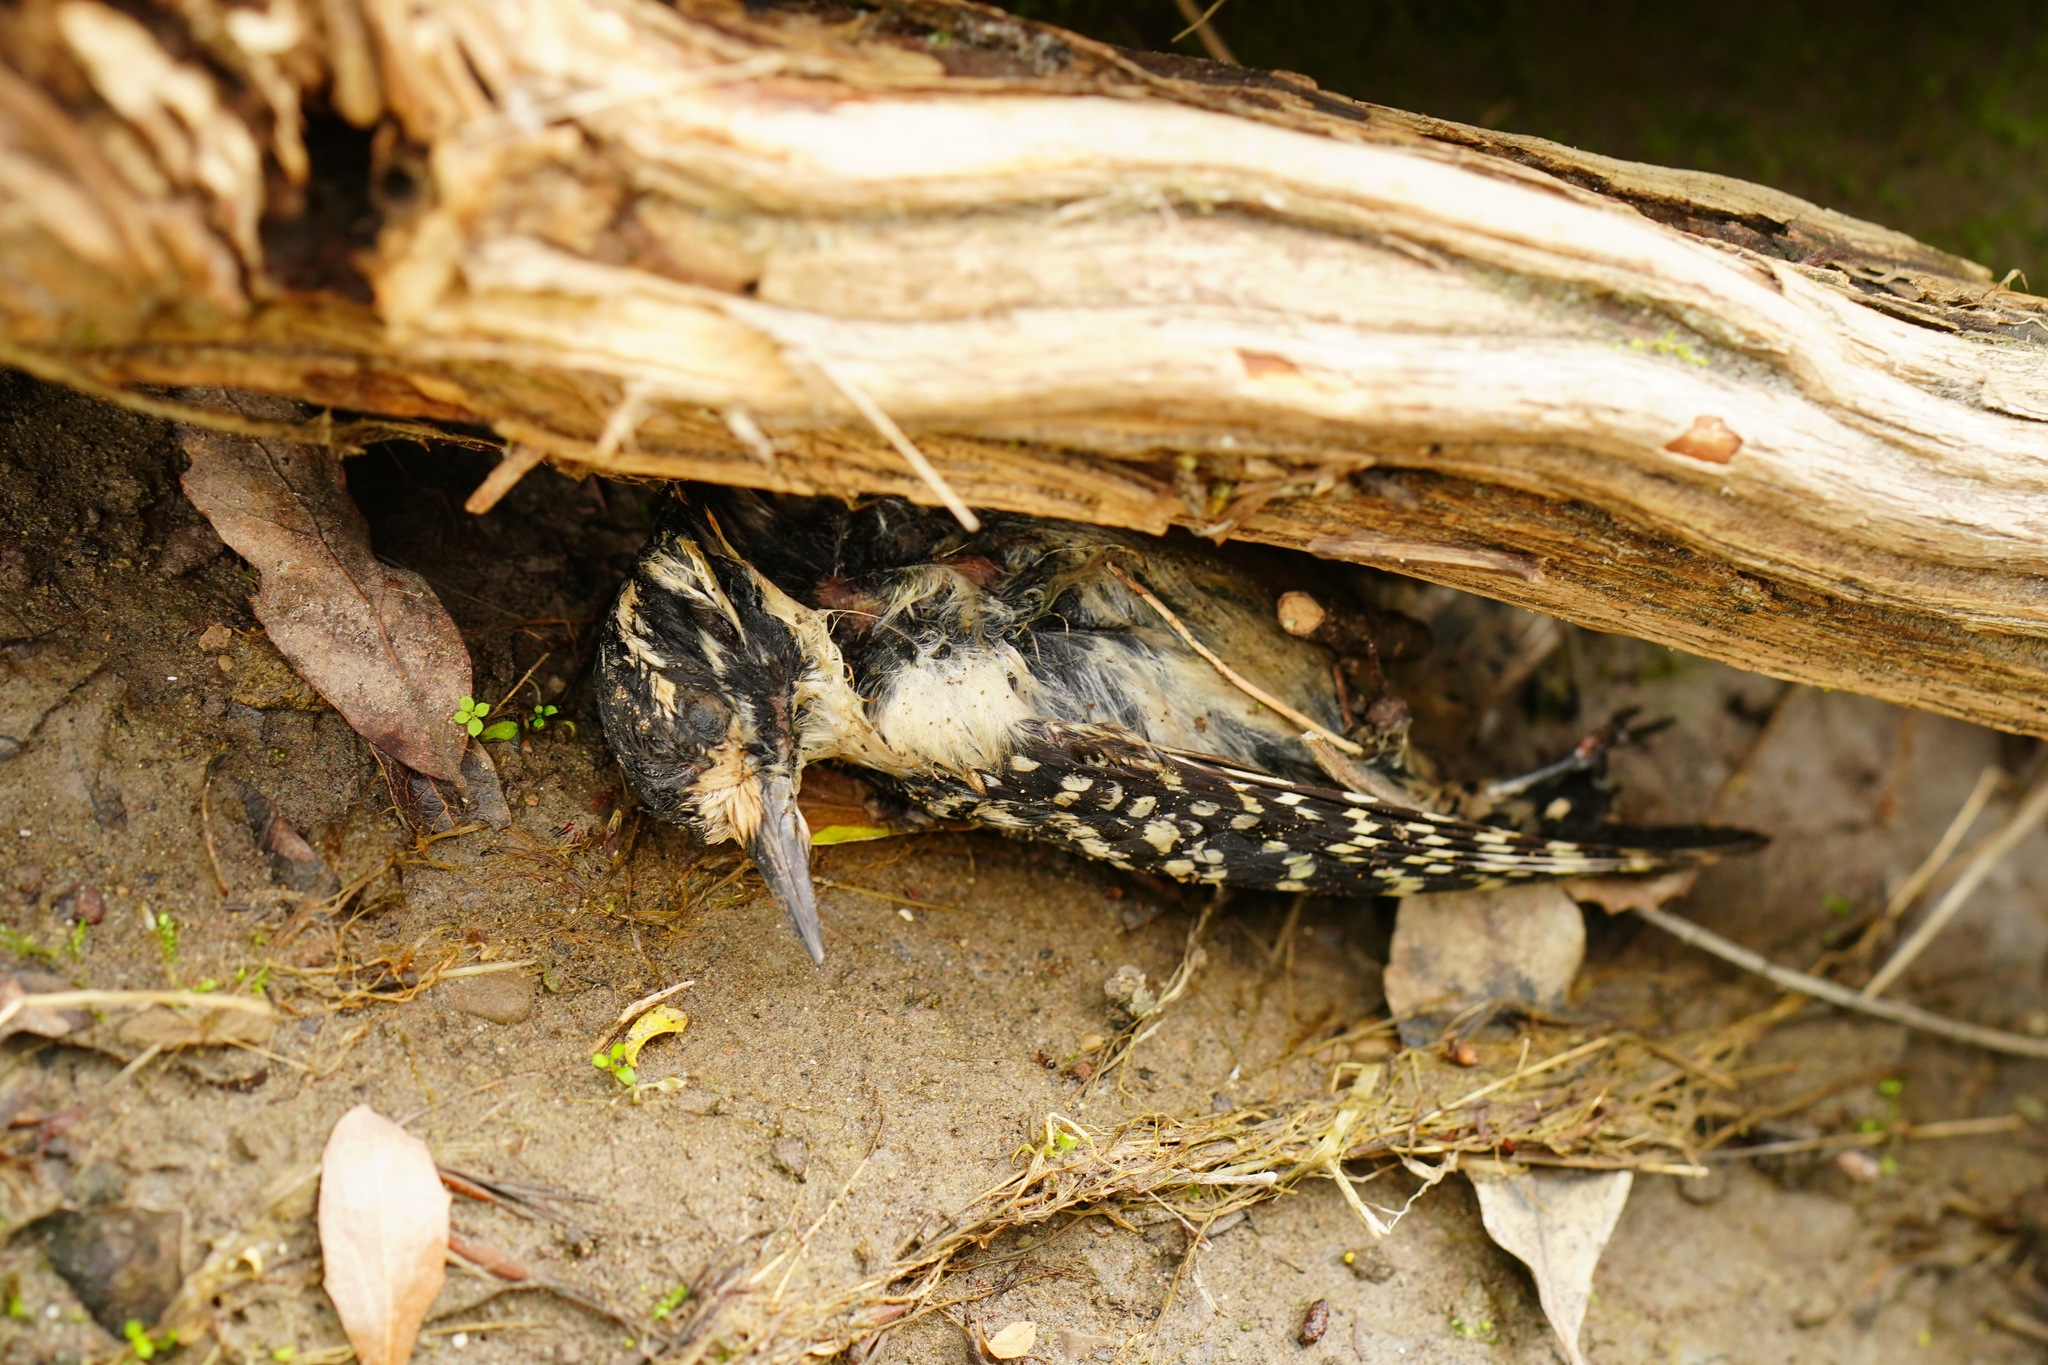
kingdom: Animalia
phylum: Chordata
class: Aves
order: Piciformes
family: Picidae
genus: Dryobates
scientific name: Dryobates nuttallii
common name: Nuttall's woodpecker
